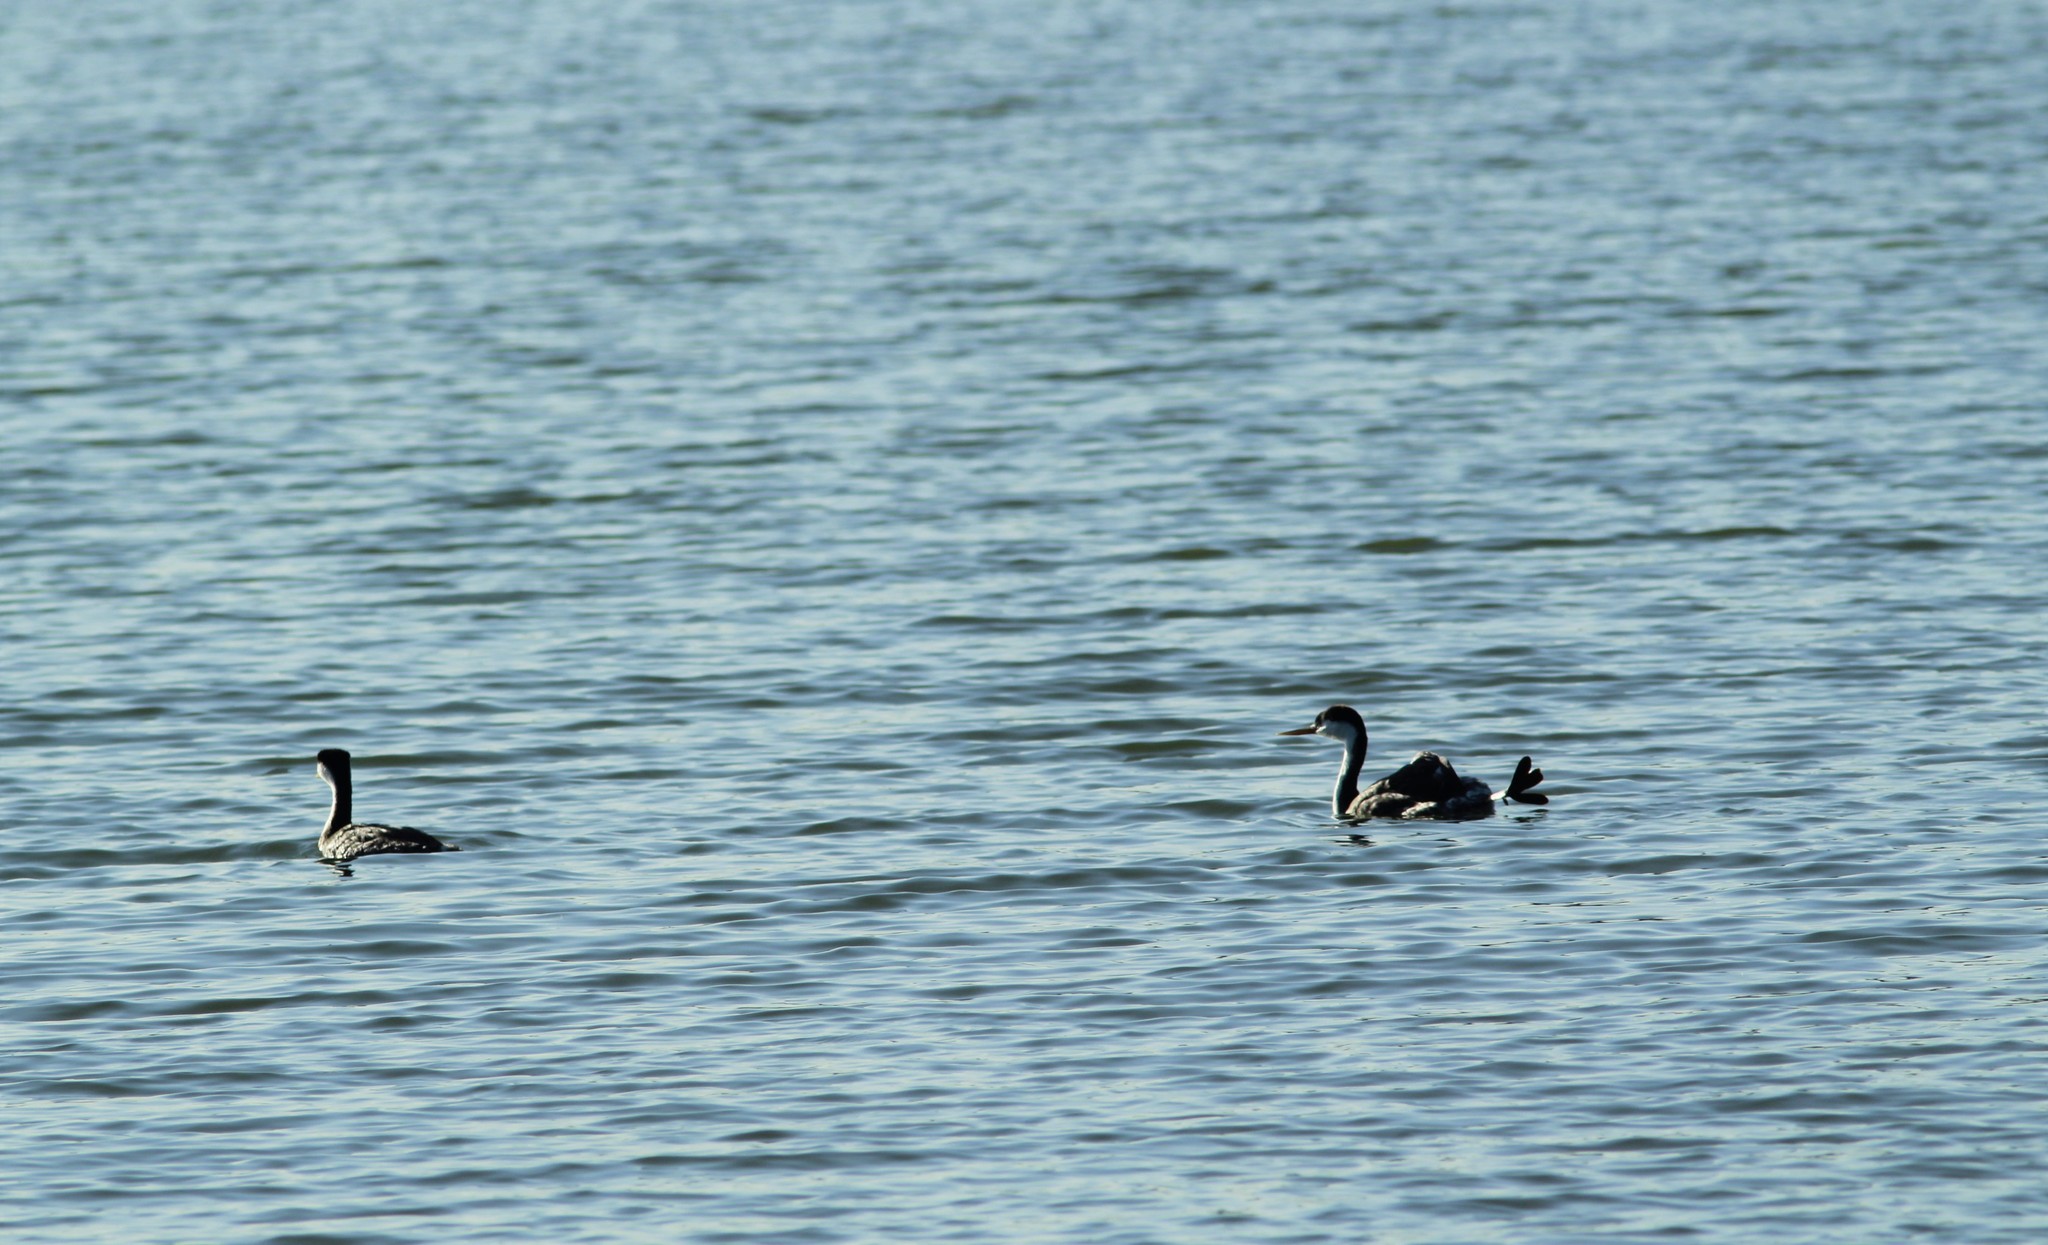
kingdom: Animalia
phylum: Chordata
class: Aves
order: Podicipediformes
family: Podicipedidae
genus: Aechmophorus
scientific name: Aechmophorus occidentalis
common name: Western grebe
